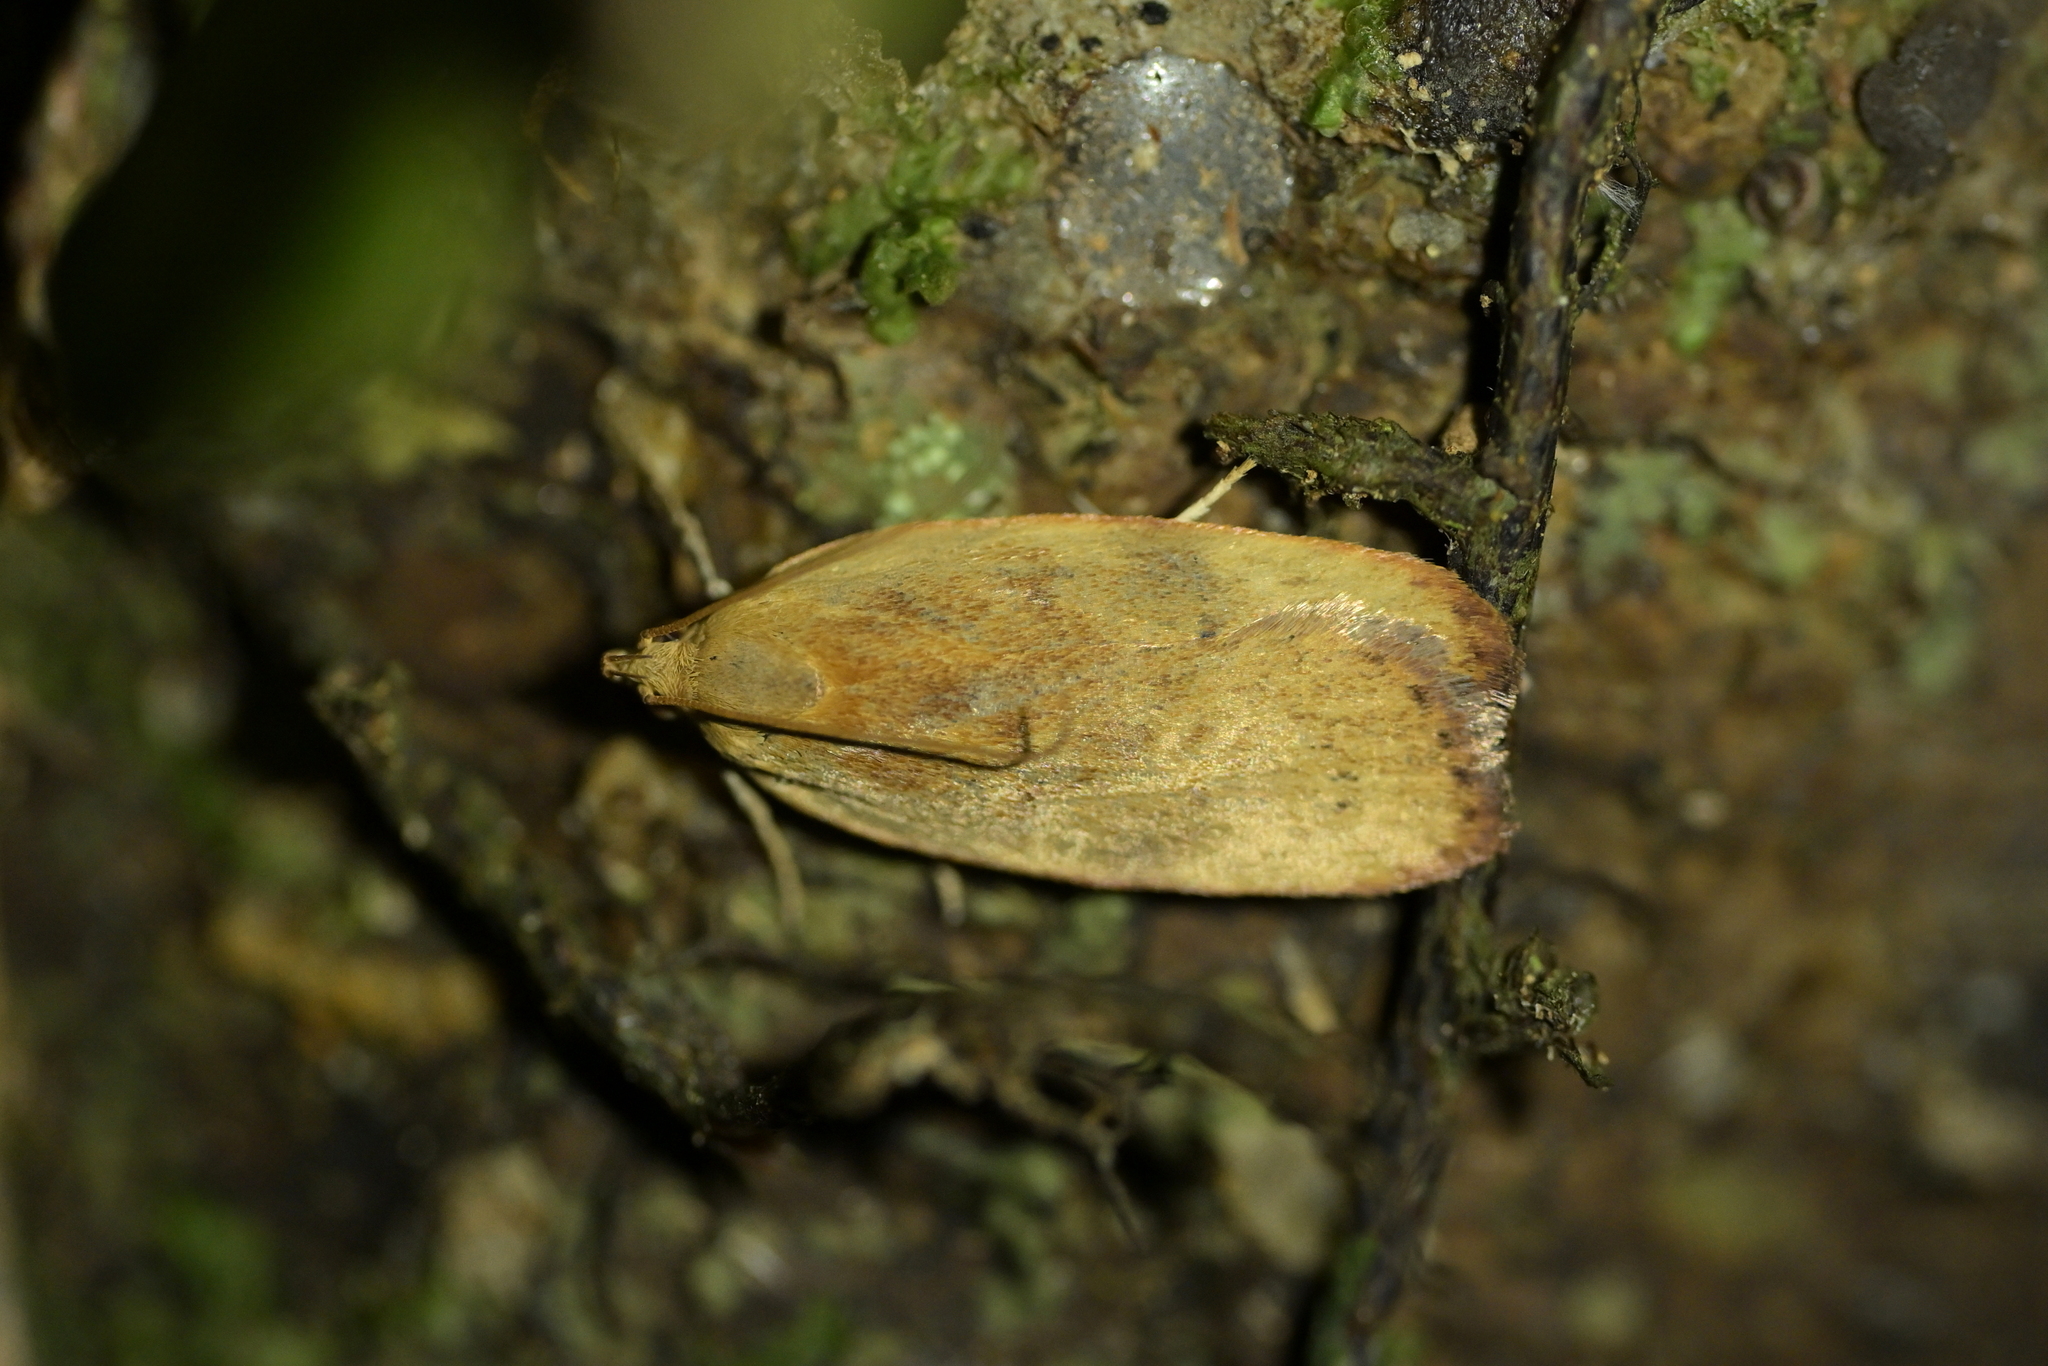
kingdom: Animalia
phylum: Arthropoda
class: Insecta
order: Lepidoptera
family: Depressariidae
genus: Phaeosaces
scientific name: Phaeosaces coarctatella
